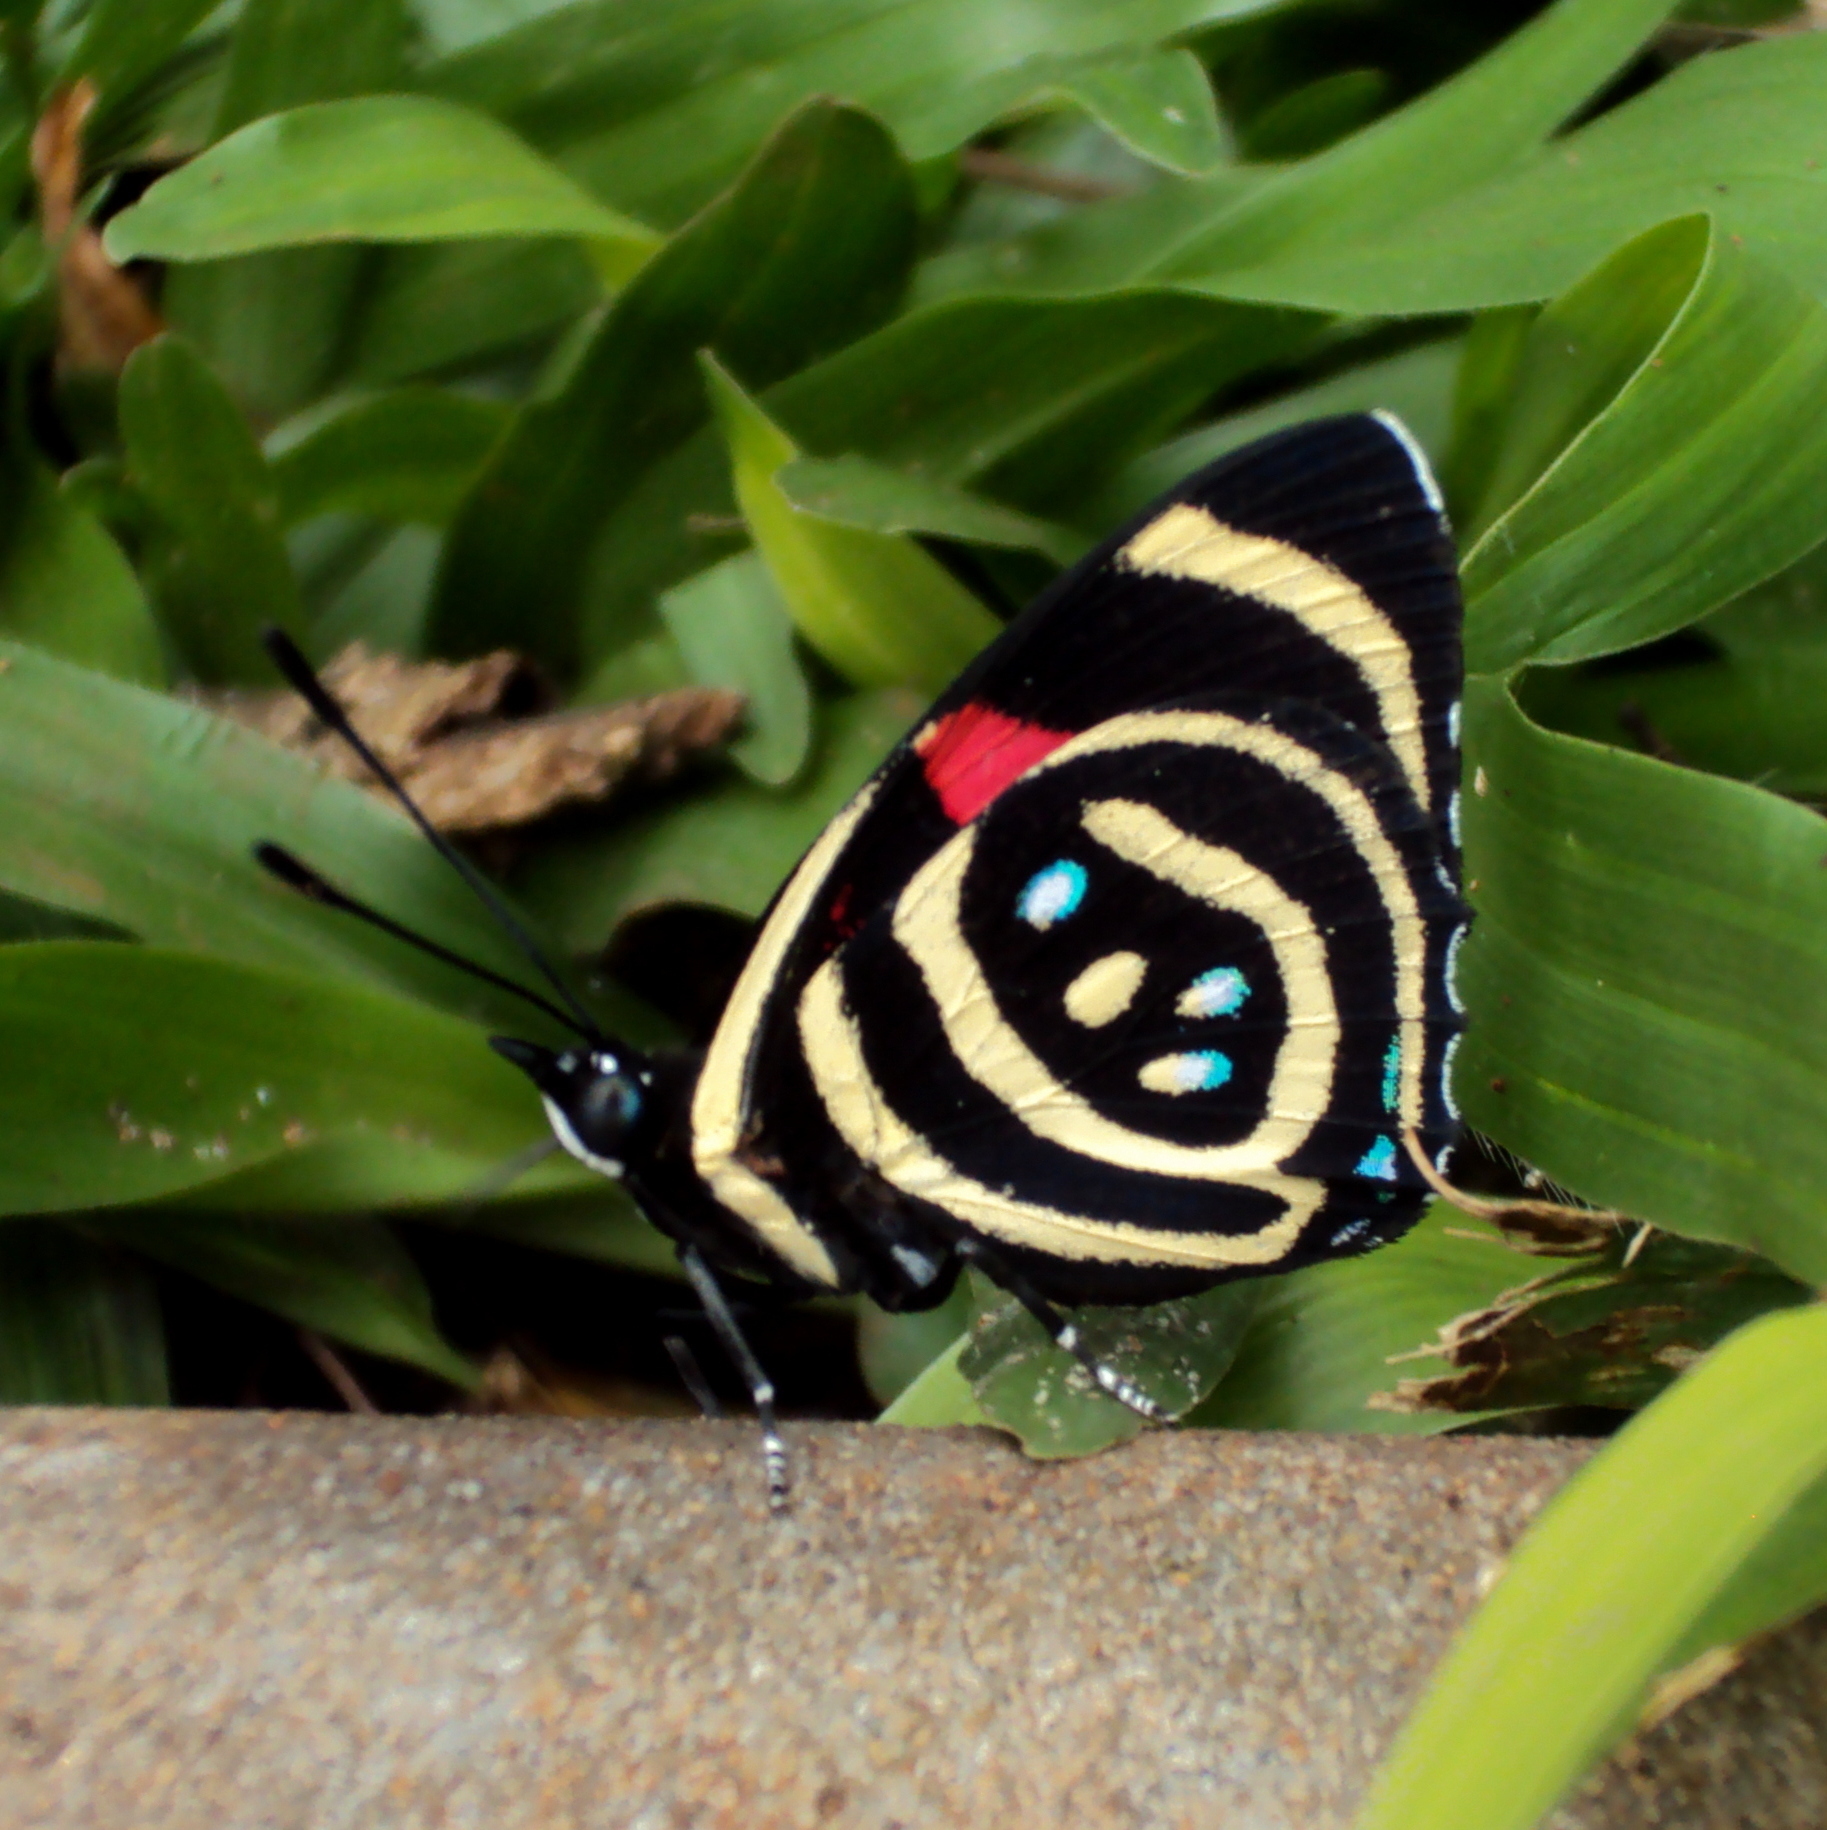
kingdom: Animalia
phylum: Arthropoda
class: Insecta
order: Lepidoptera
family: Nymphalidae
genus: Catagramma
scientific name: Catagramma Callicore hydaspes
